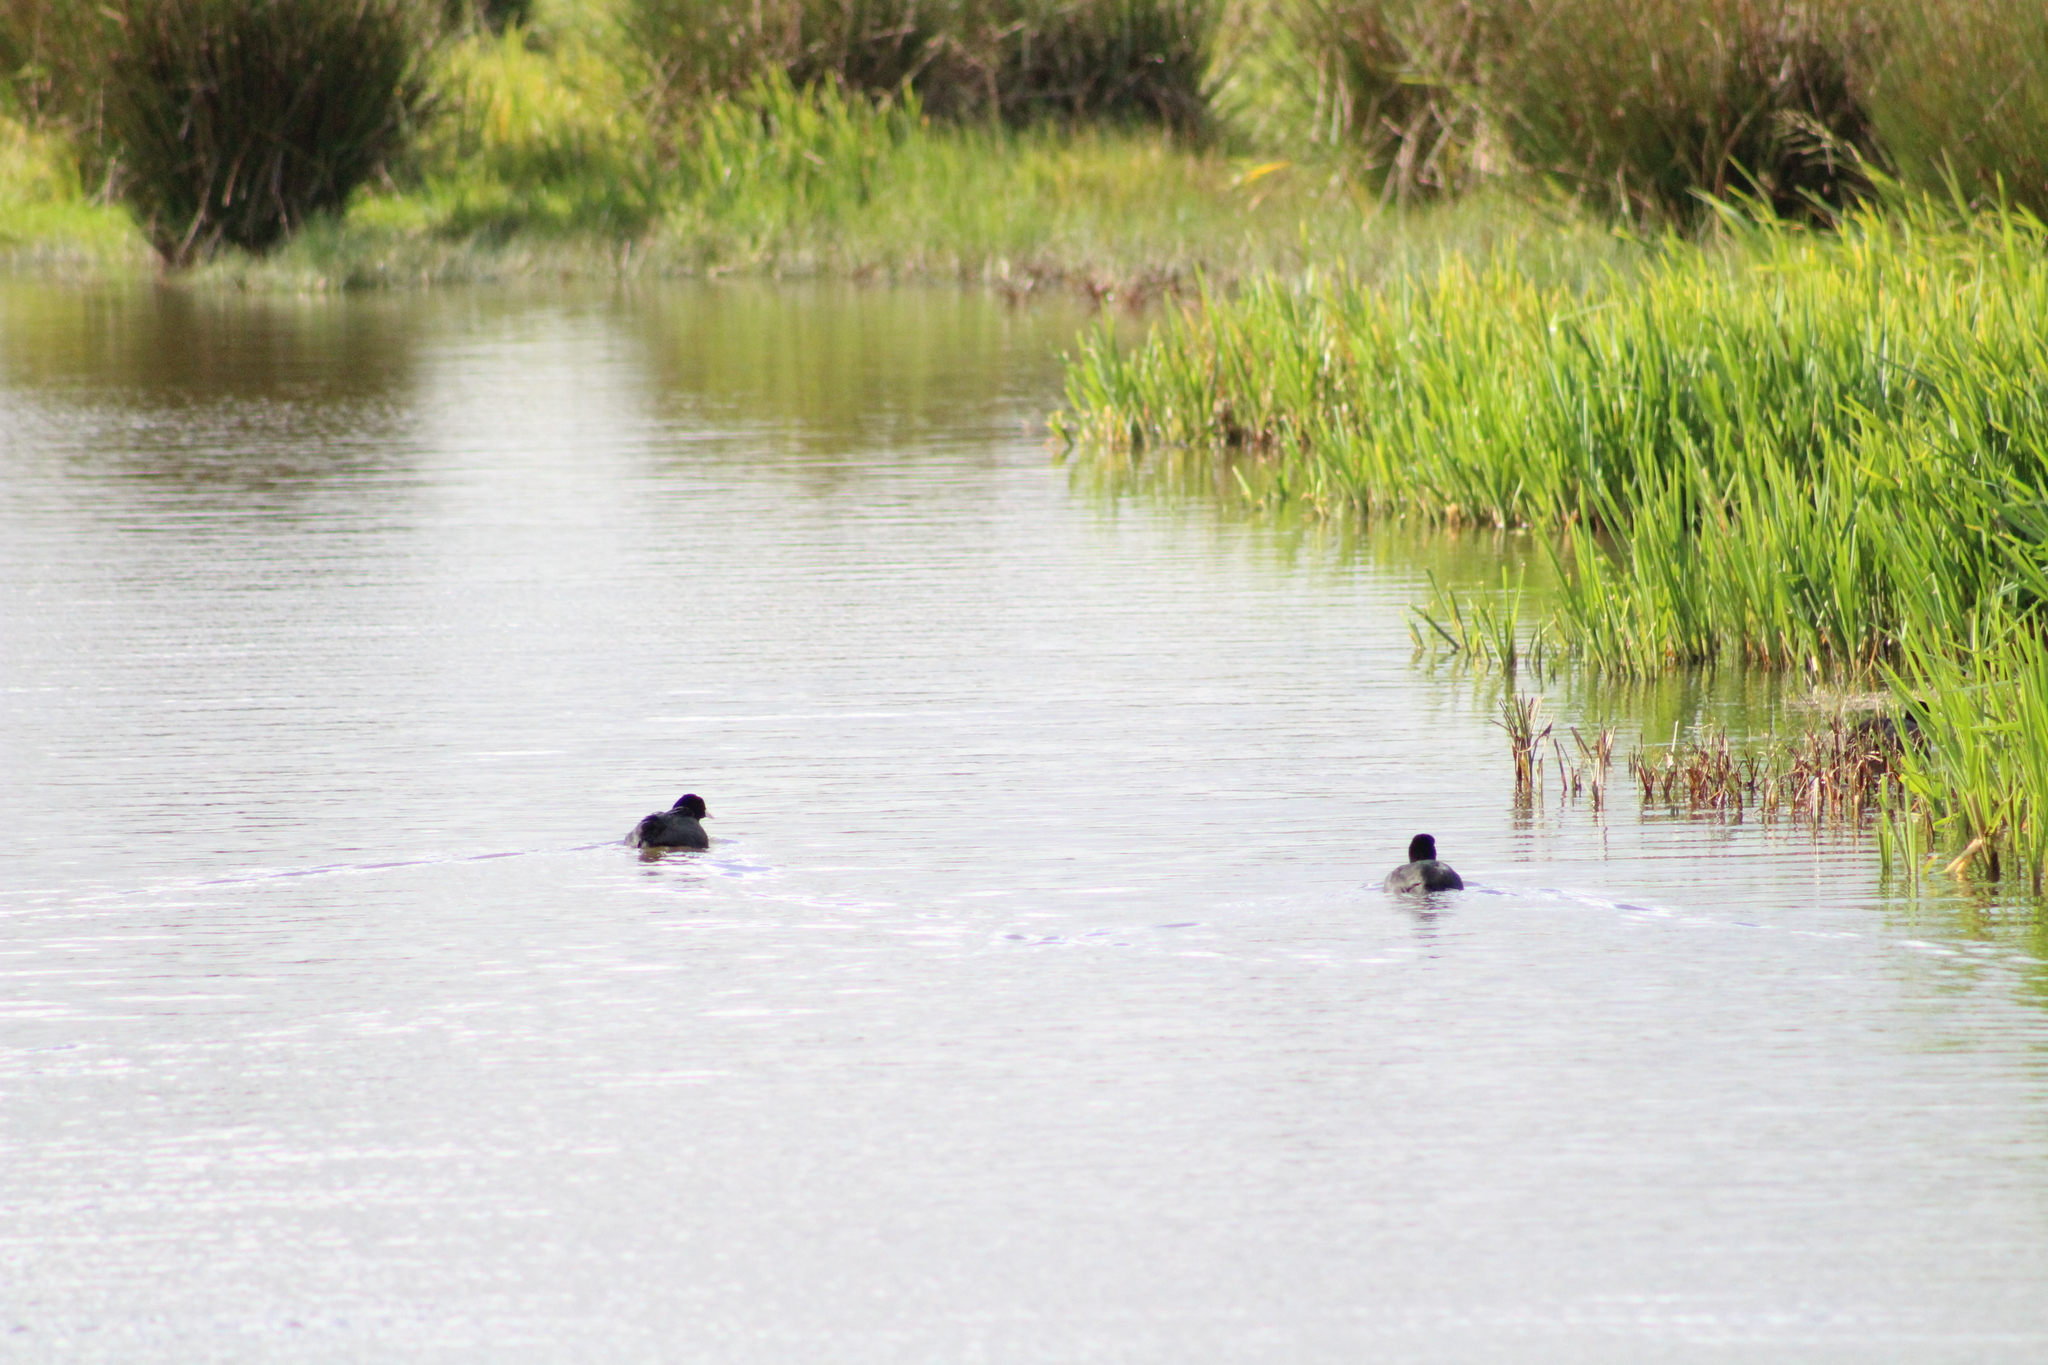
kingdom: Animalia
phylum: Chordata
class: Aves
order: Gruiformes
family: Rallidae
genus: Fulica
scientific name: Fulica atra
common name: Eurasian coot
